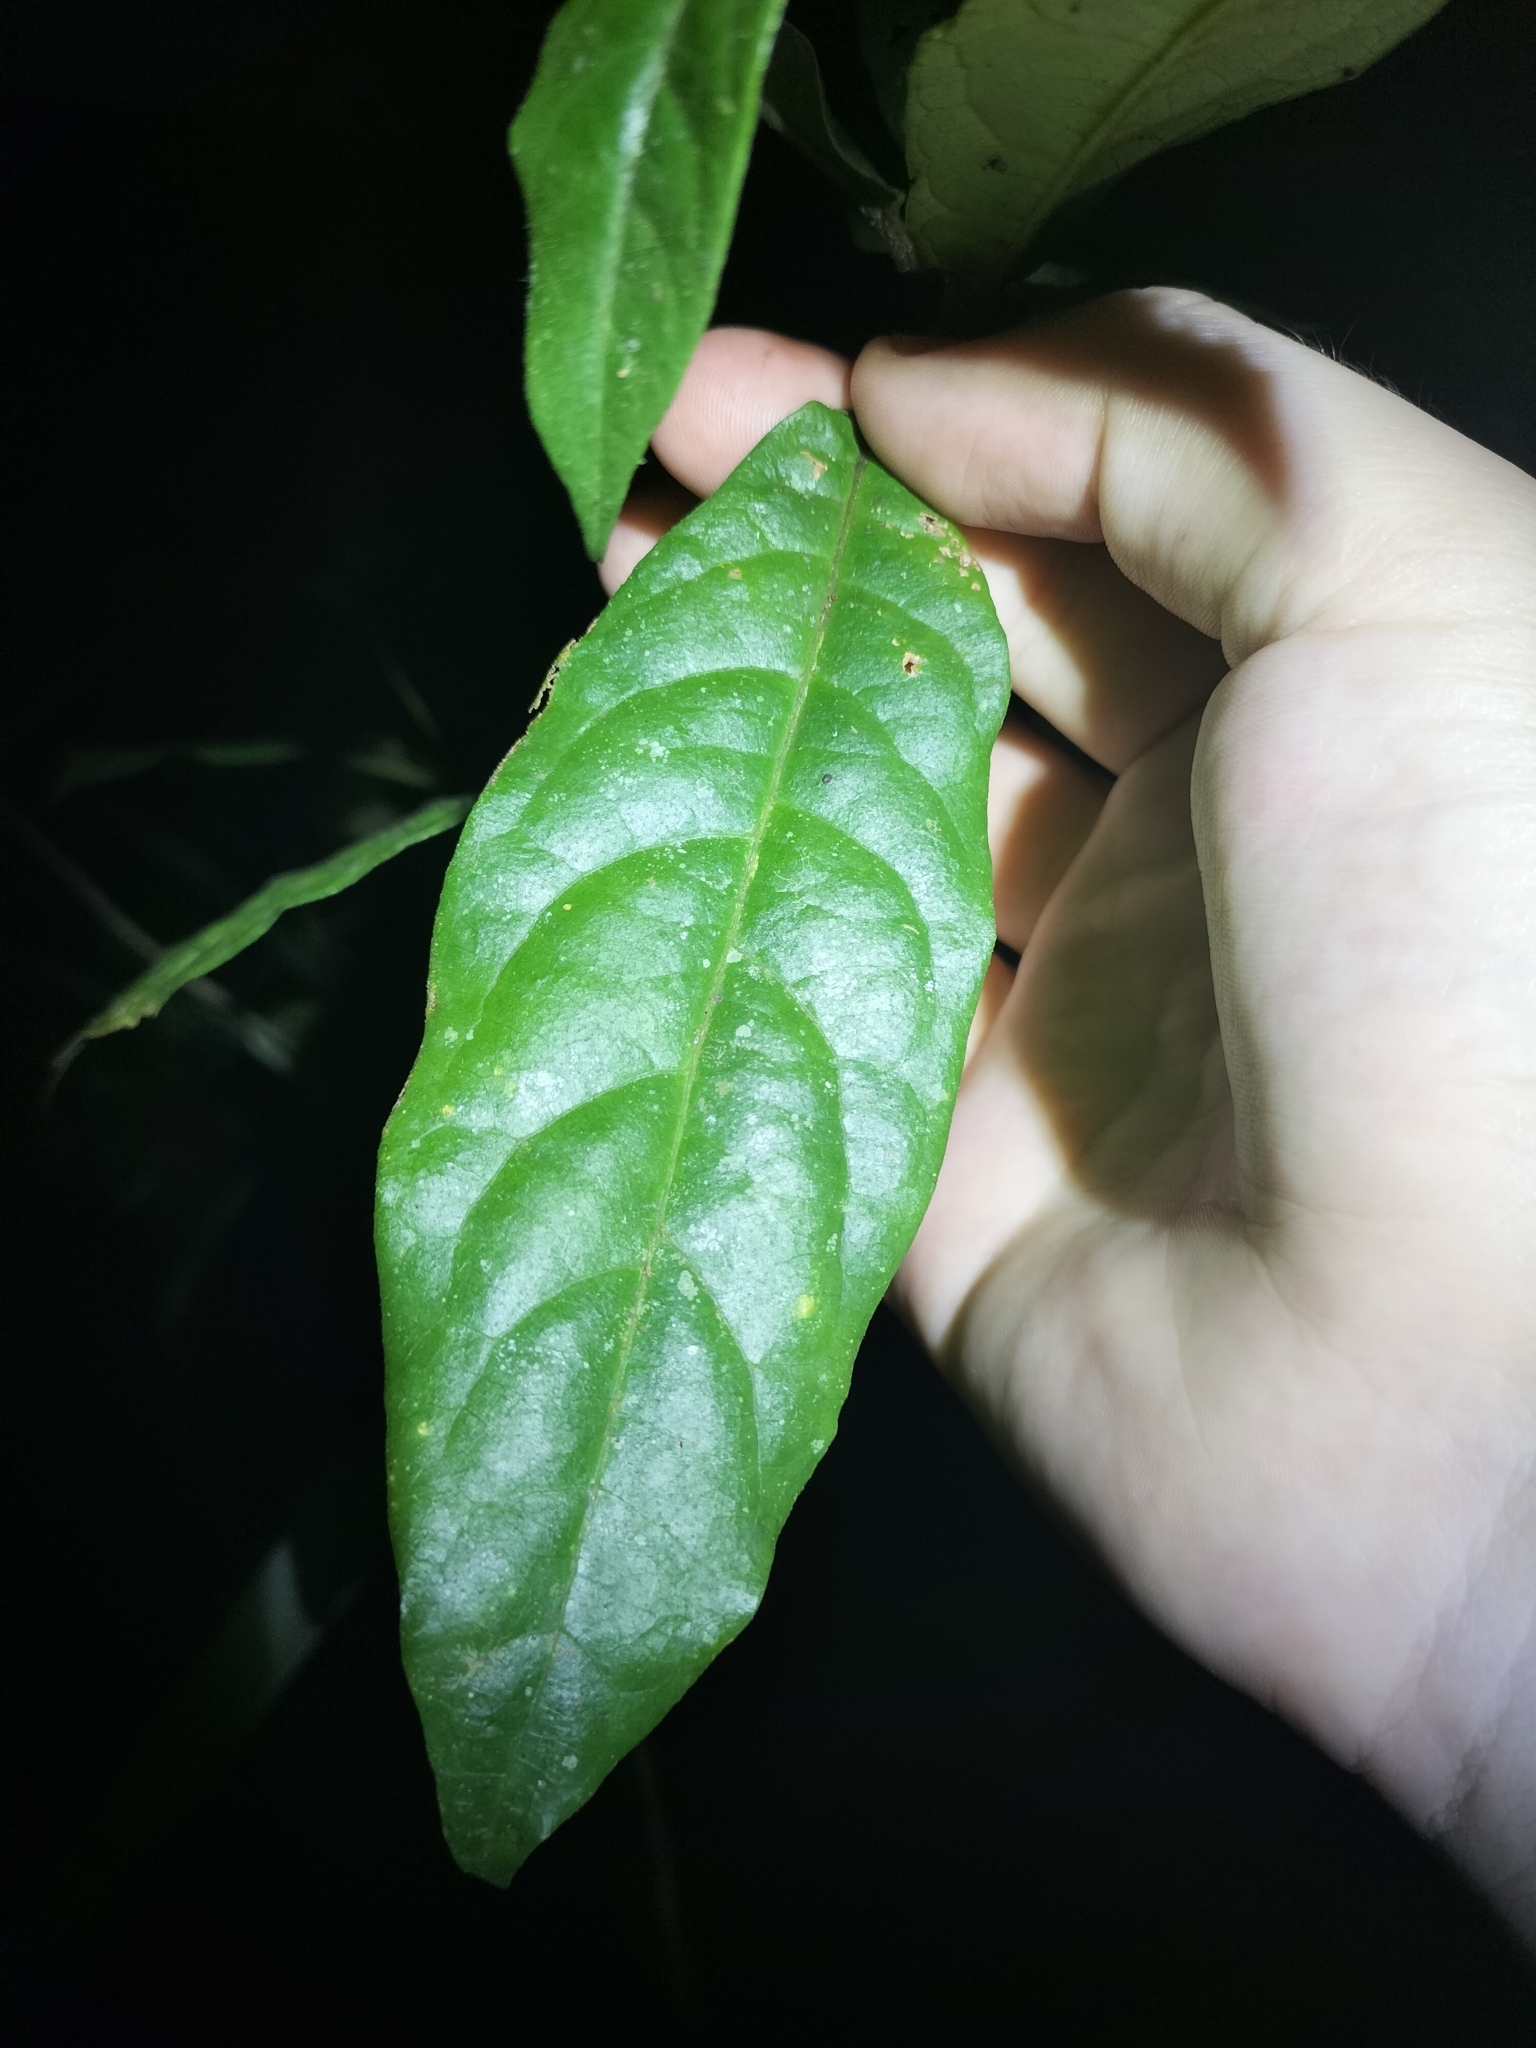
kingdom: Plantae
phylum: Tracheophyta
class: Magnoliopsida
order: Apiales
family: Pittosporaceae
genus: Pittosporum
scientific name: Pittosporum rubiginosum
